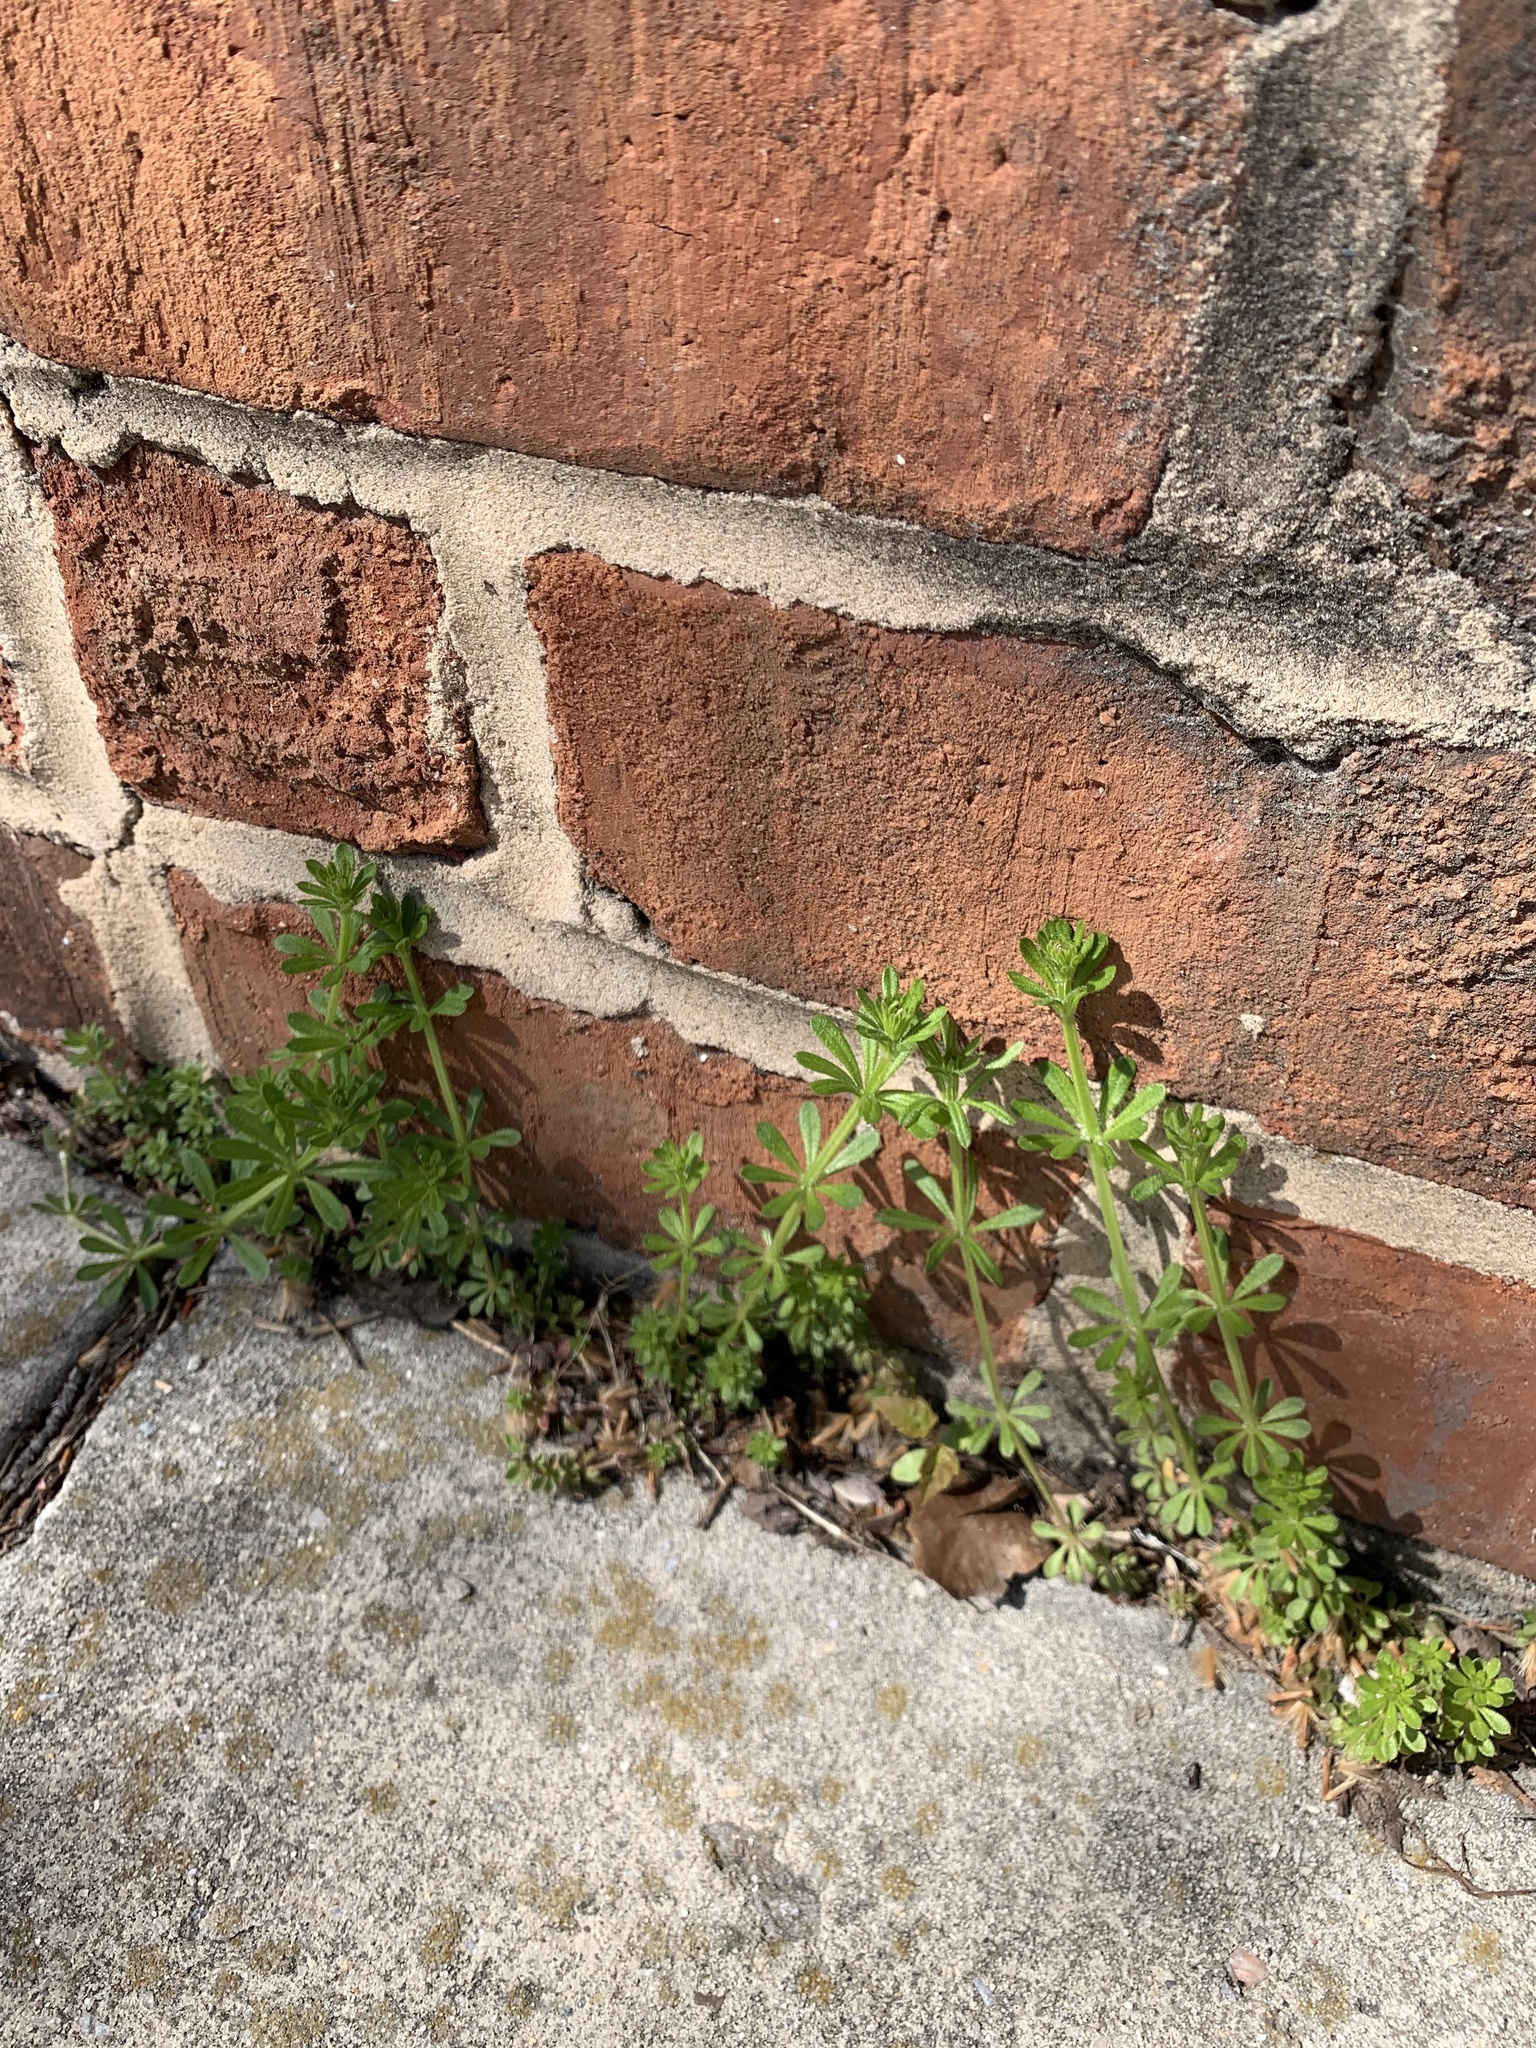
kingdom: Plantae
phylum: Tracheophyta
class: Magnoliopsida
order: Gentianales
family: Rubiaceae
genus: Galium
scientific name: Galium aparine
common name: Cleavers
